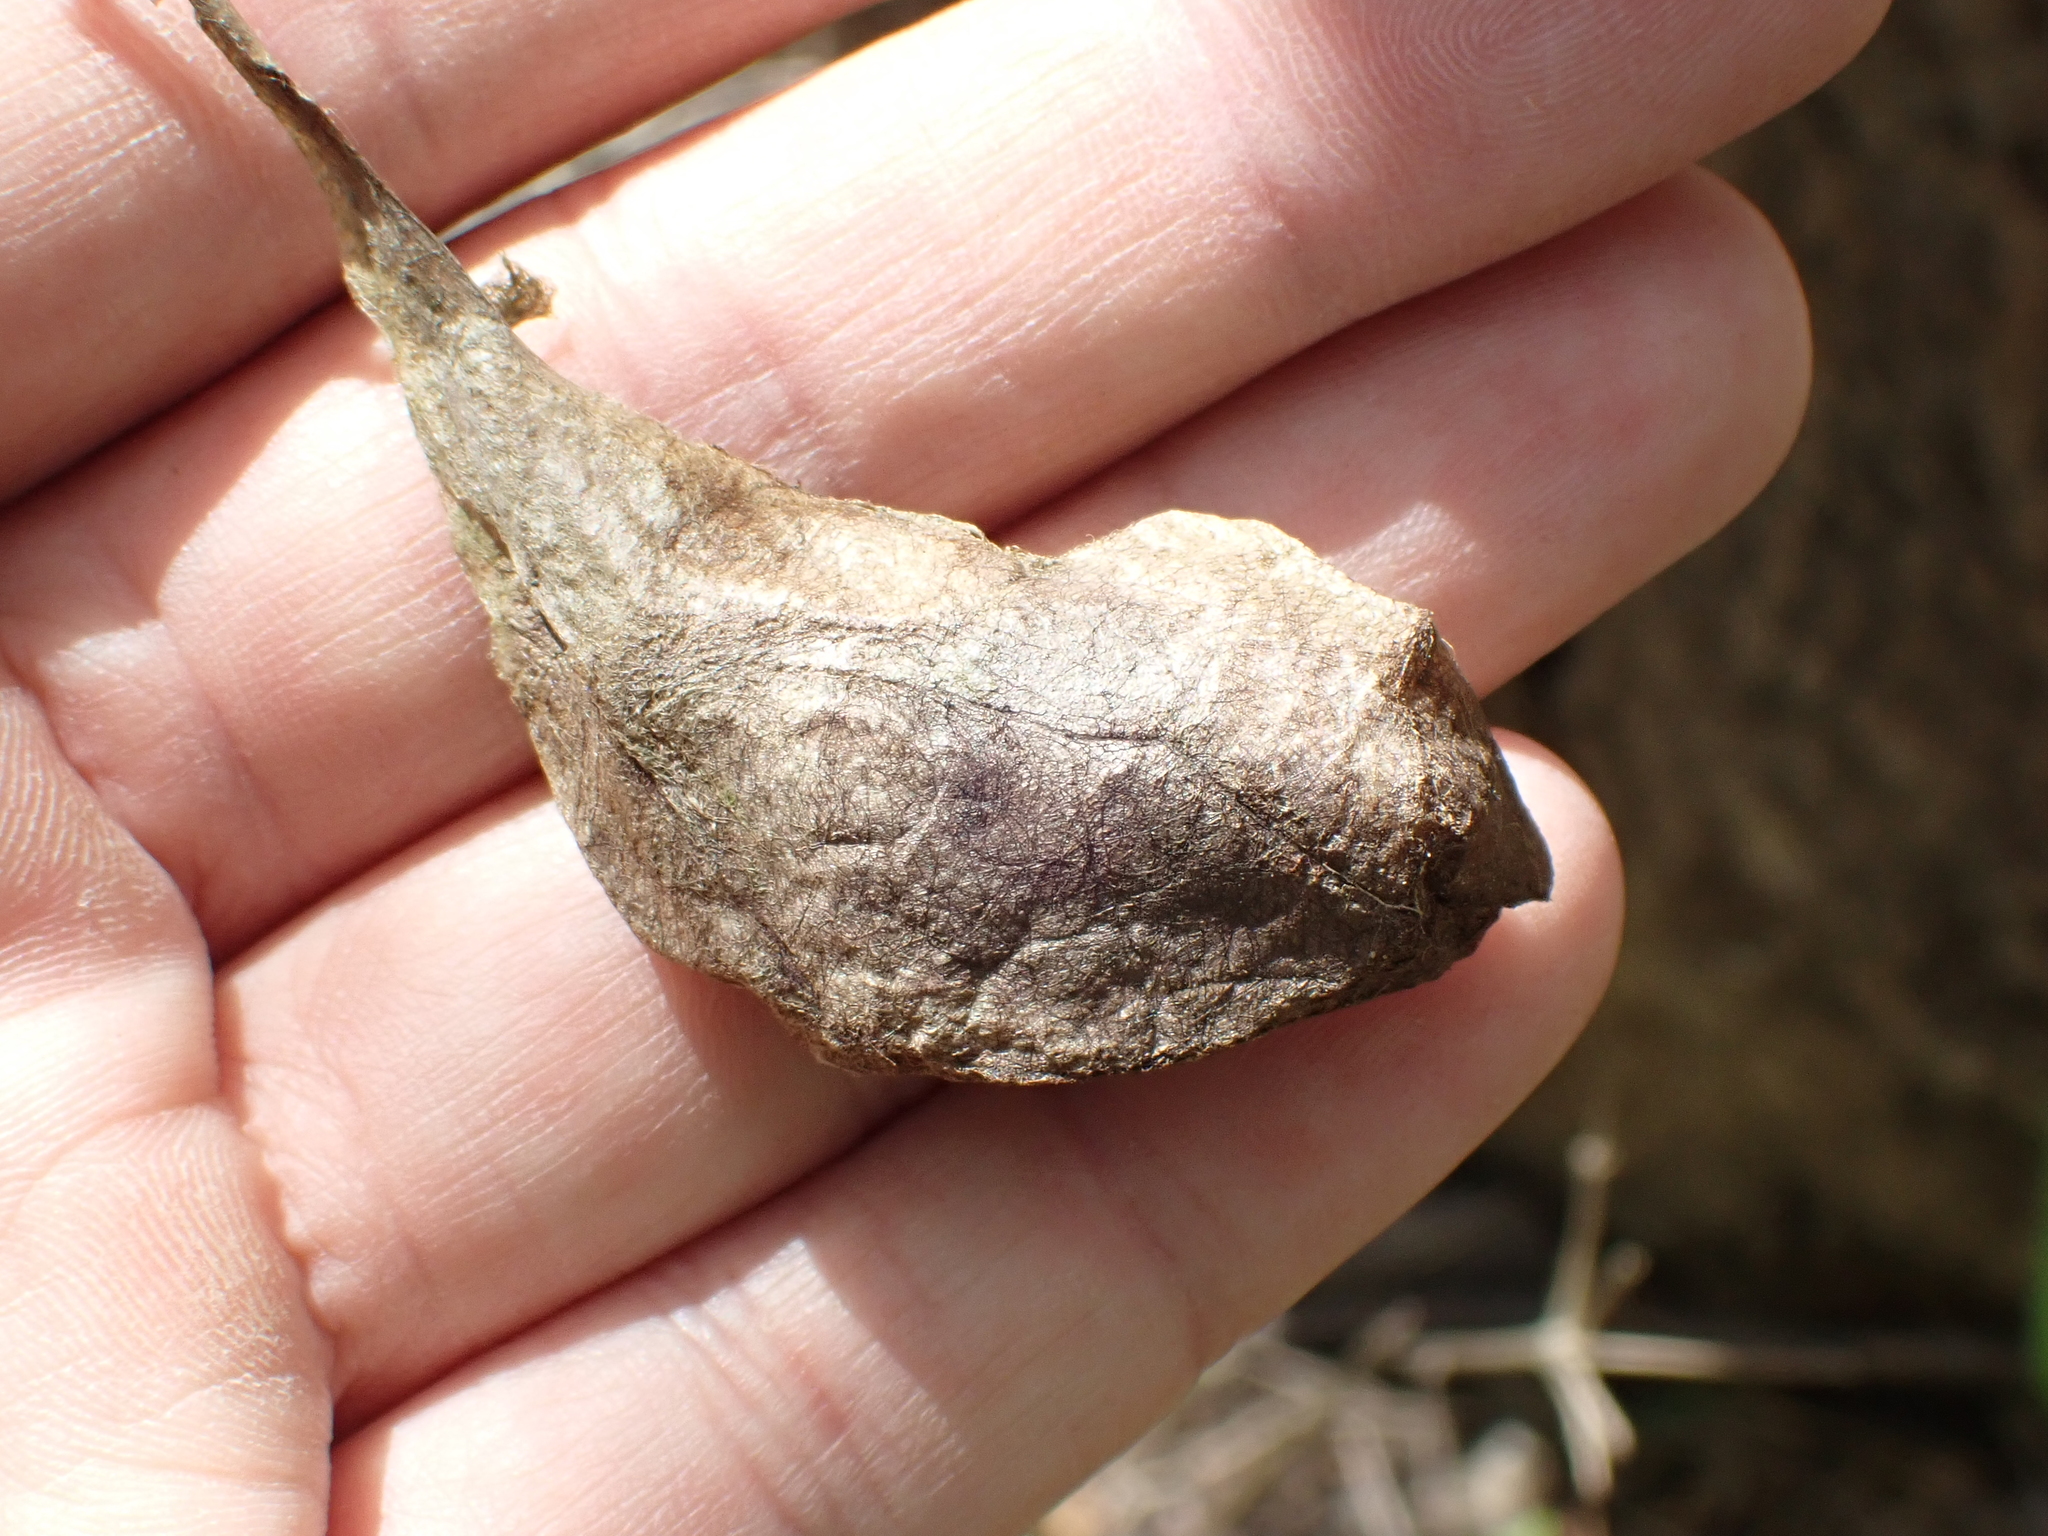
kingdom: Animalia
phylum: Arthropoda
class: Insecta
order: Lepidoptera
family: Saturniidae
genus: Callosamia
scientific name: Callosamia angulifera
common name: Tulip tree silkmoth
